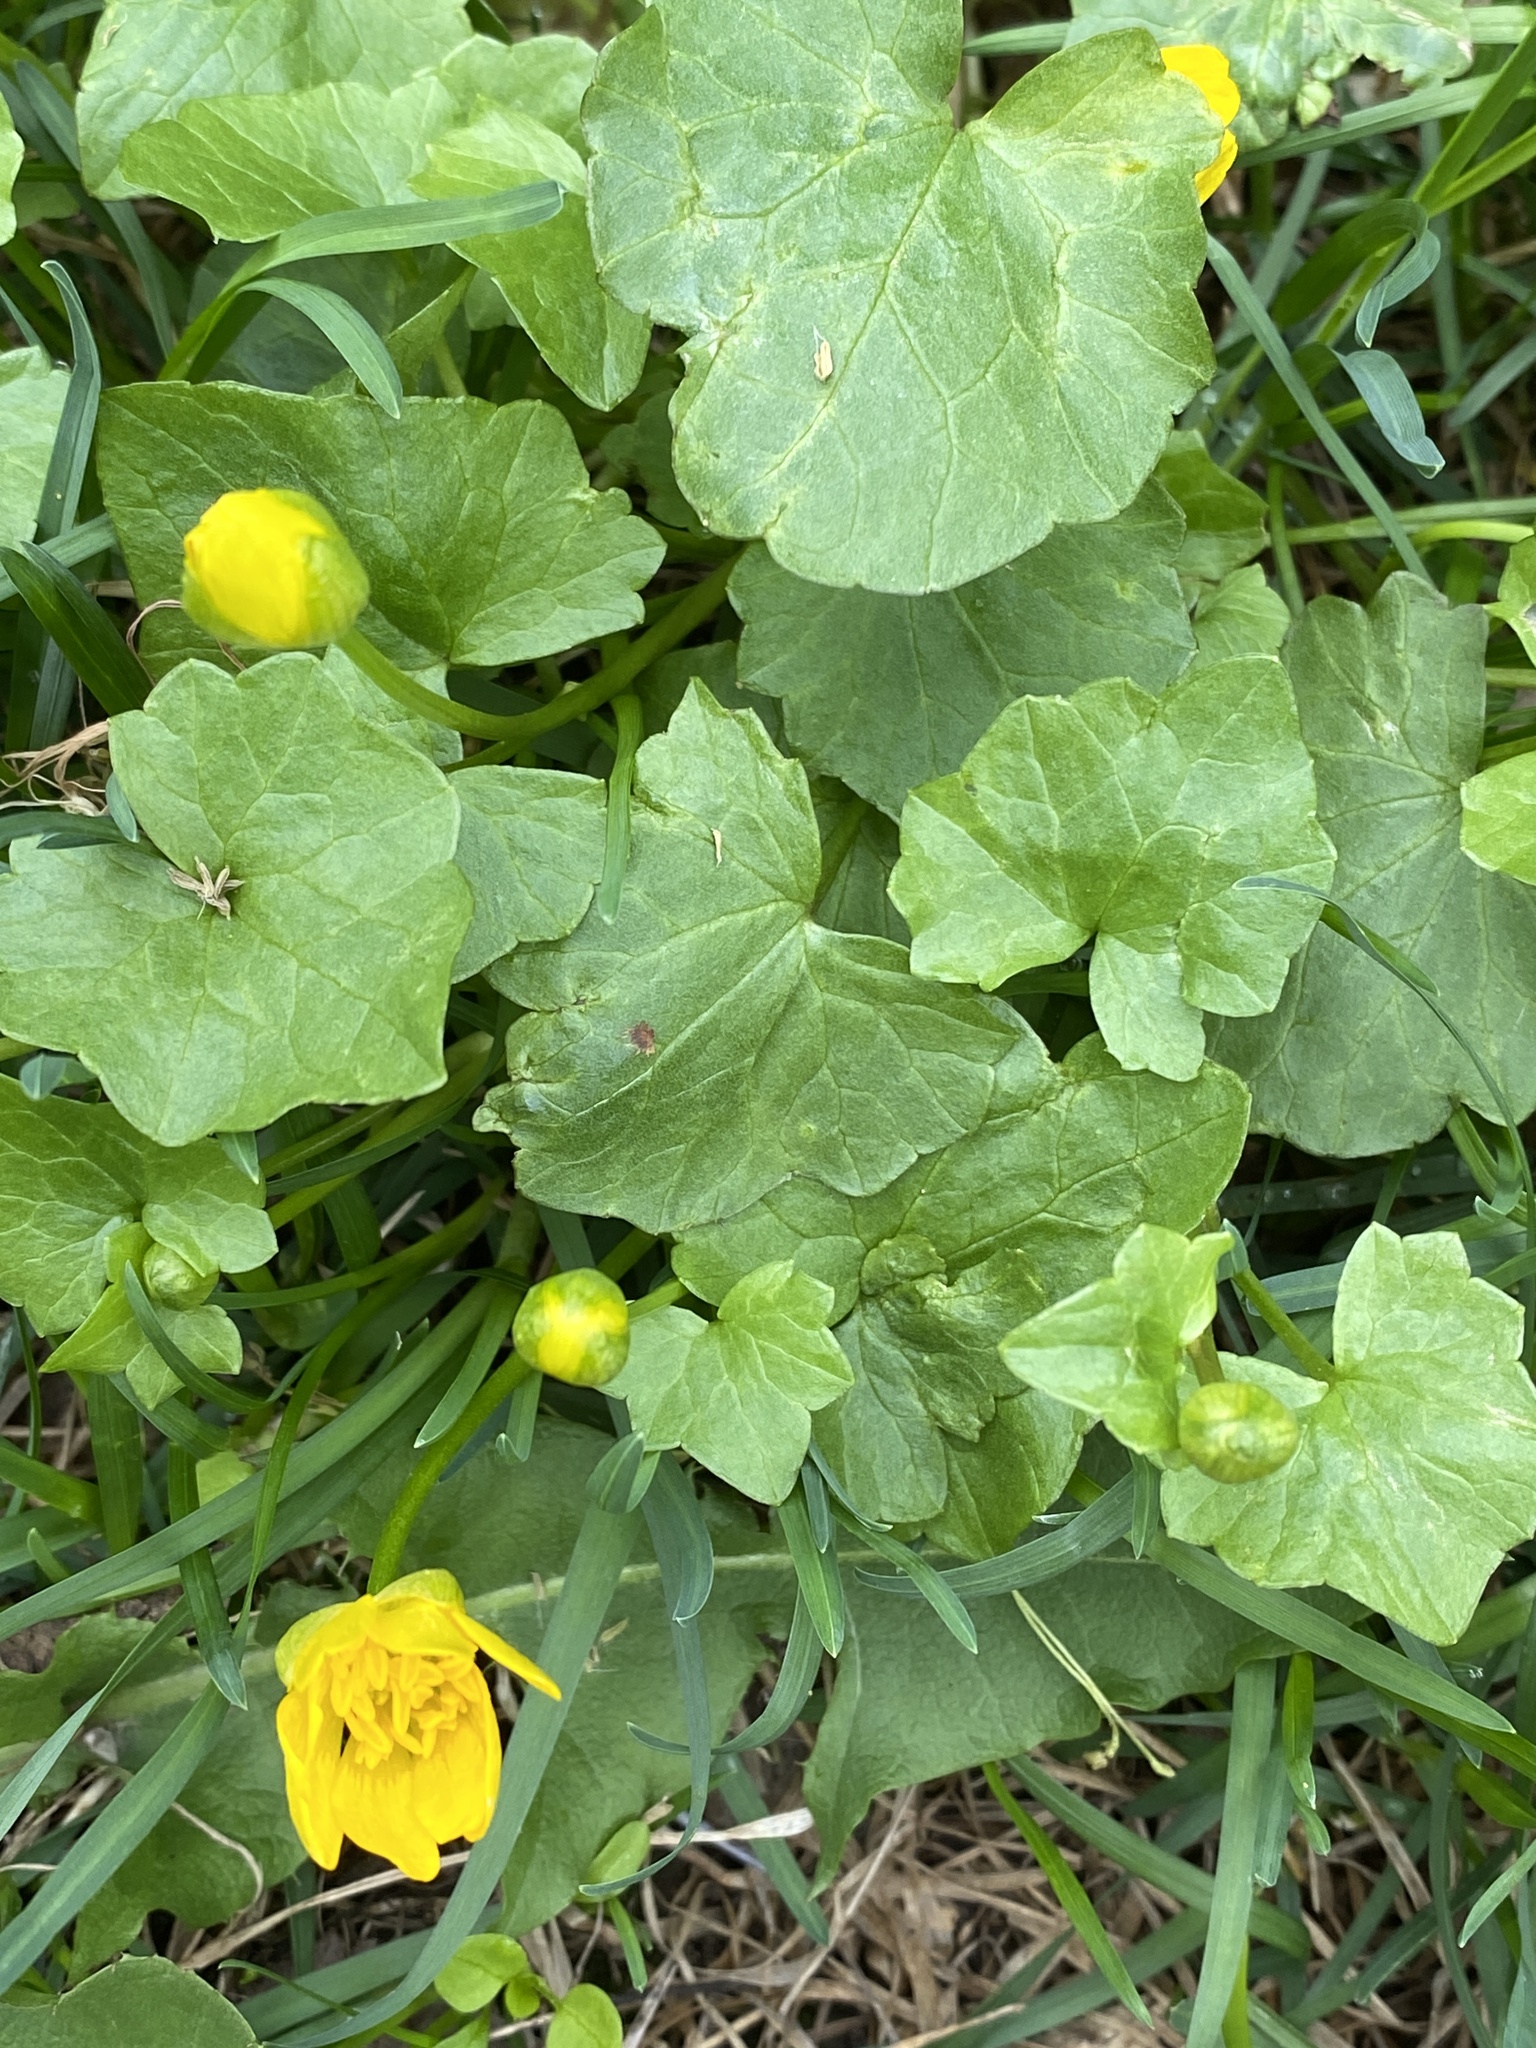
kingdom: Plantae
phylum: Tracheophyta
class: Magnoliopsida
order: Ranunculales
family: Ranunculaceae
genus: Ficaria
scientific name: Ficaria verna
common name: Lesser celandine
